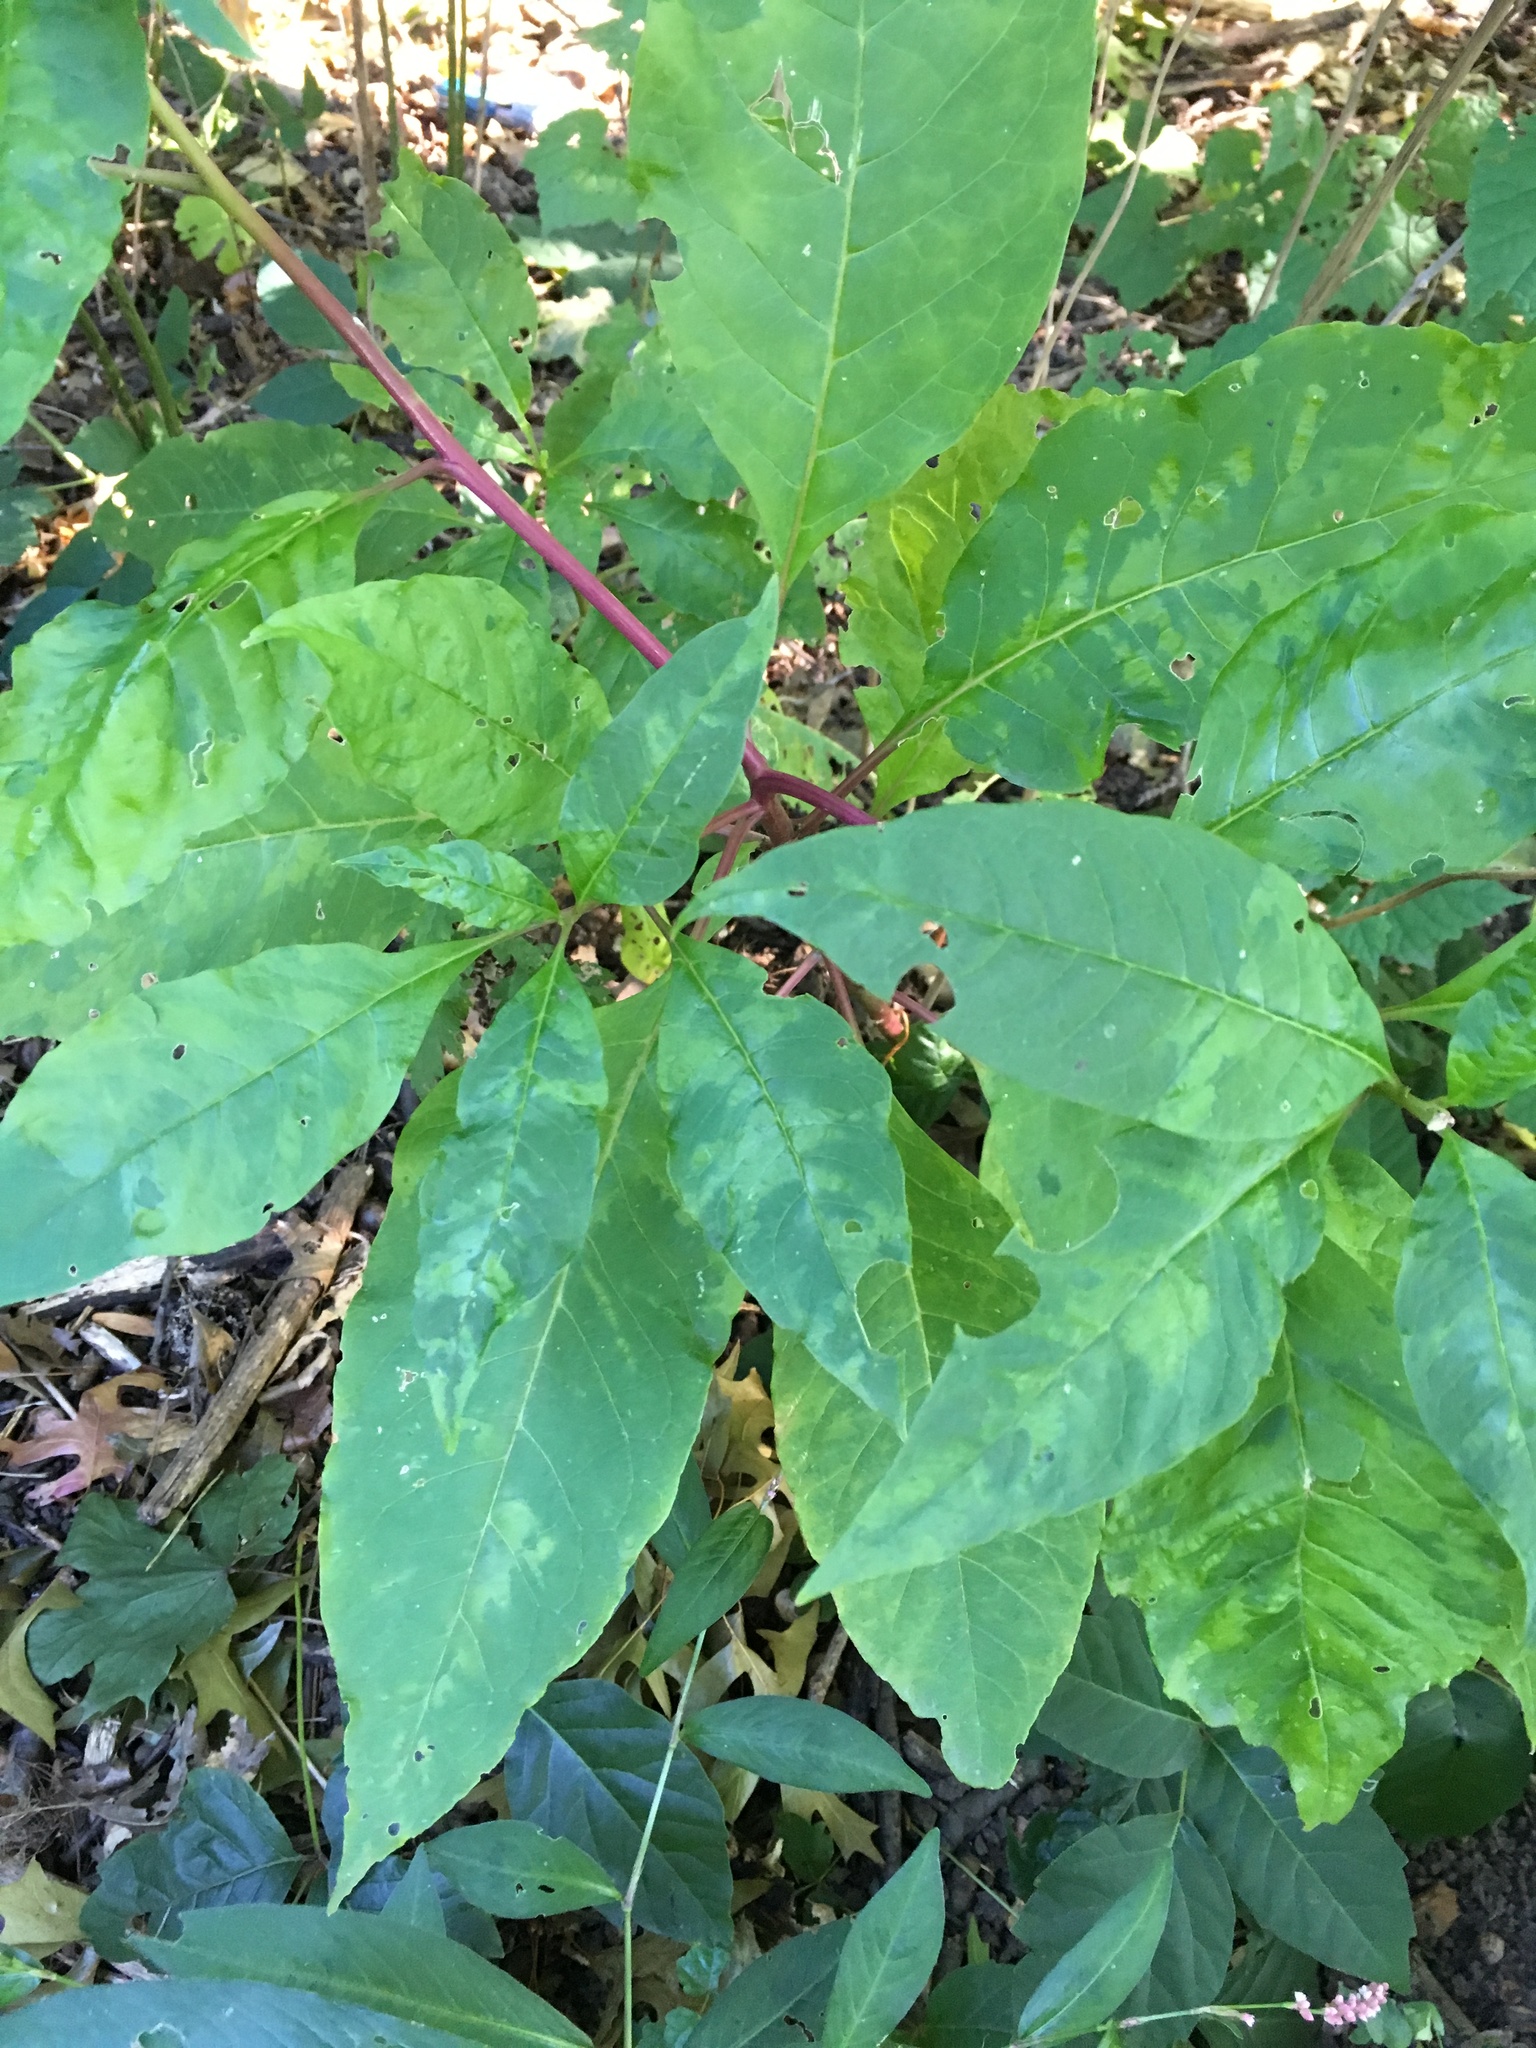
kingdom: Plantae
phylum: Tracheophyta
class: Magnoliopsida
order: Caryophyllales
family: Phytolaccaceae
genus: Phytolacca
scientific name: Phytolacca americana
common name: American pokeweed
